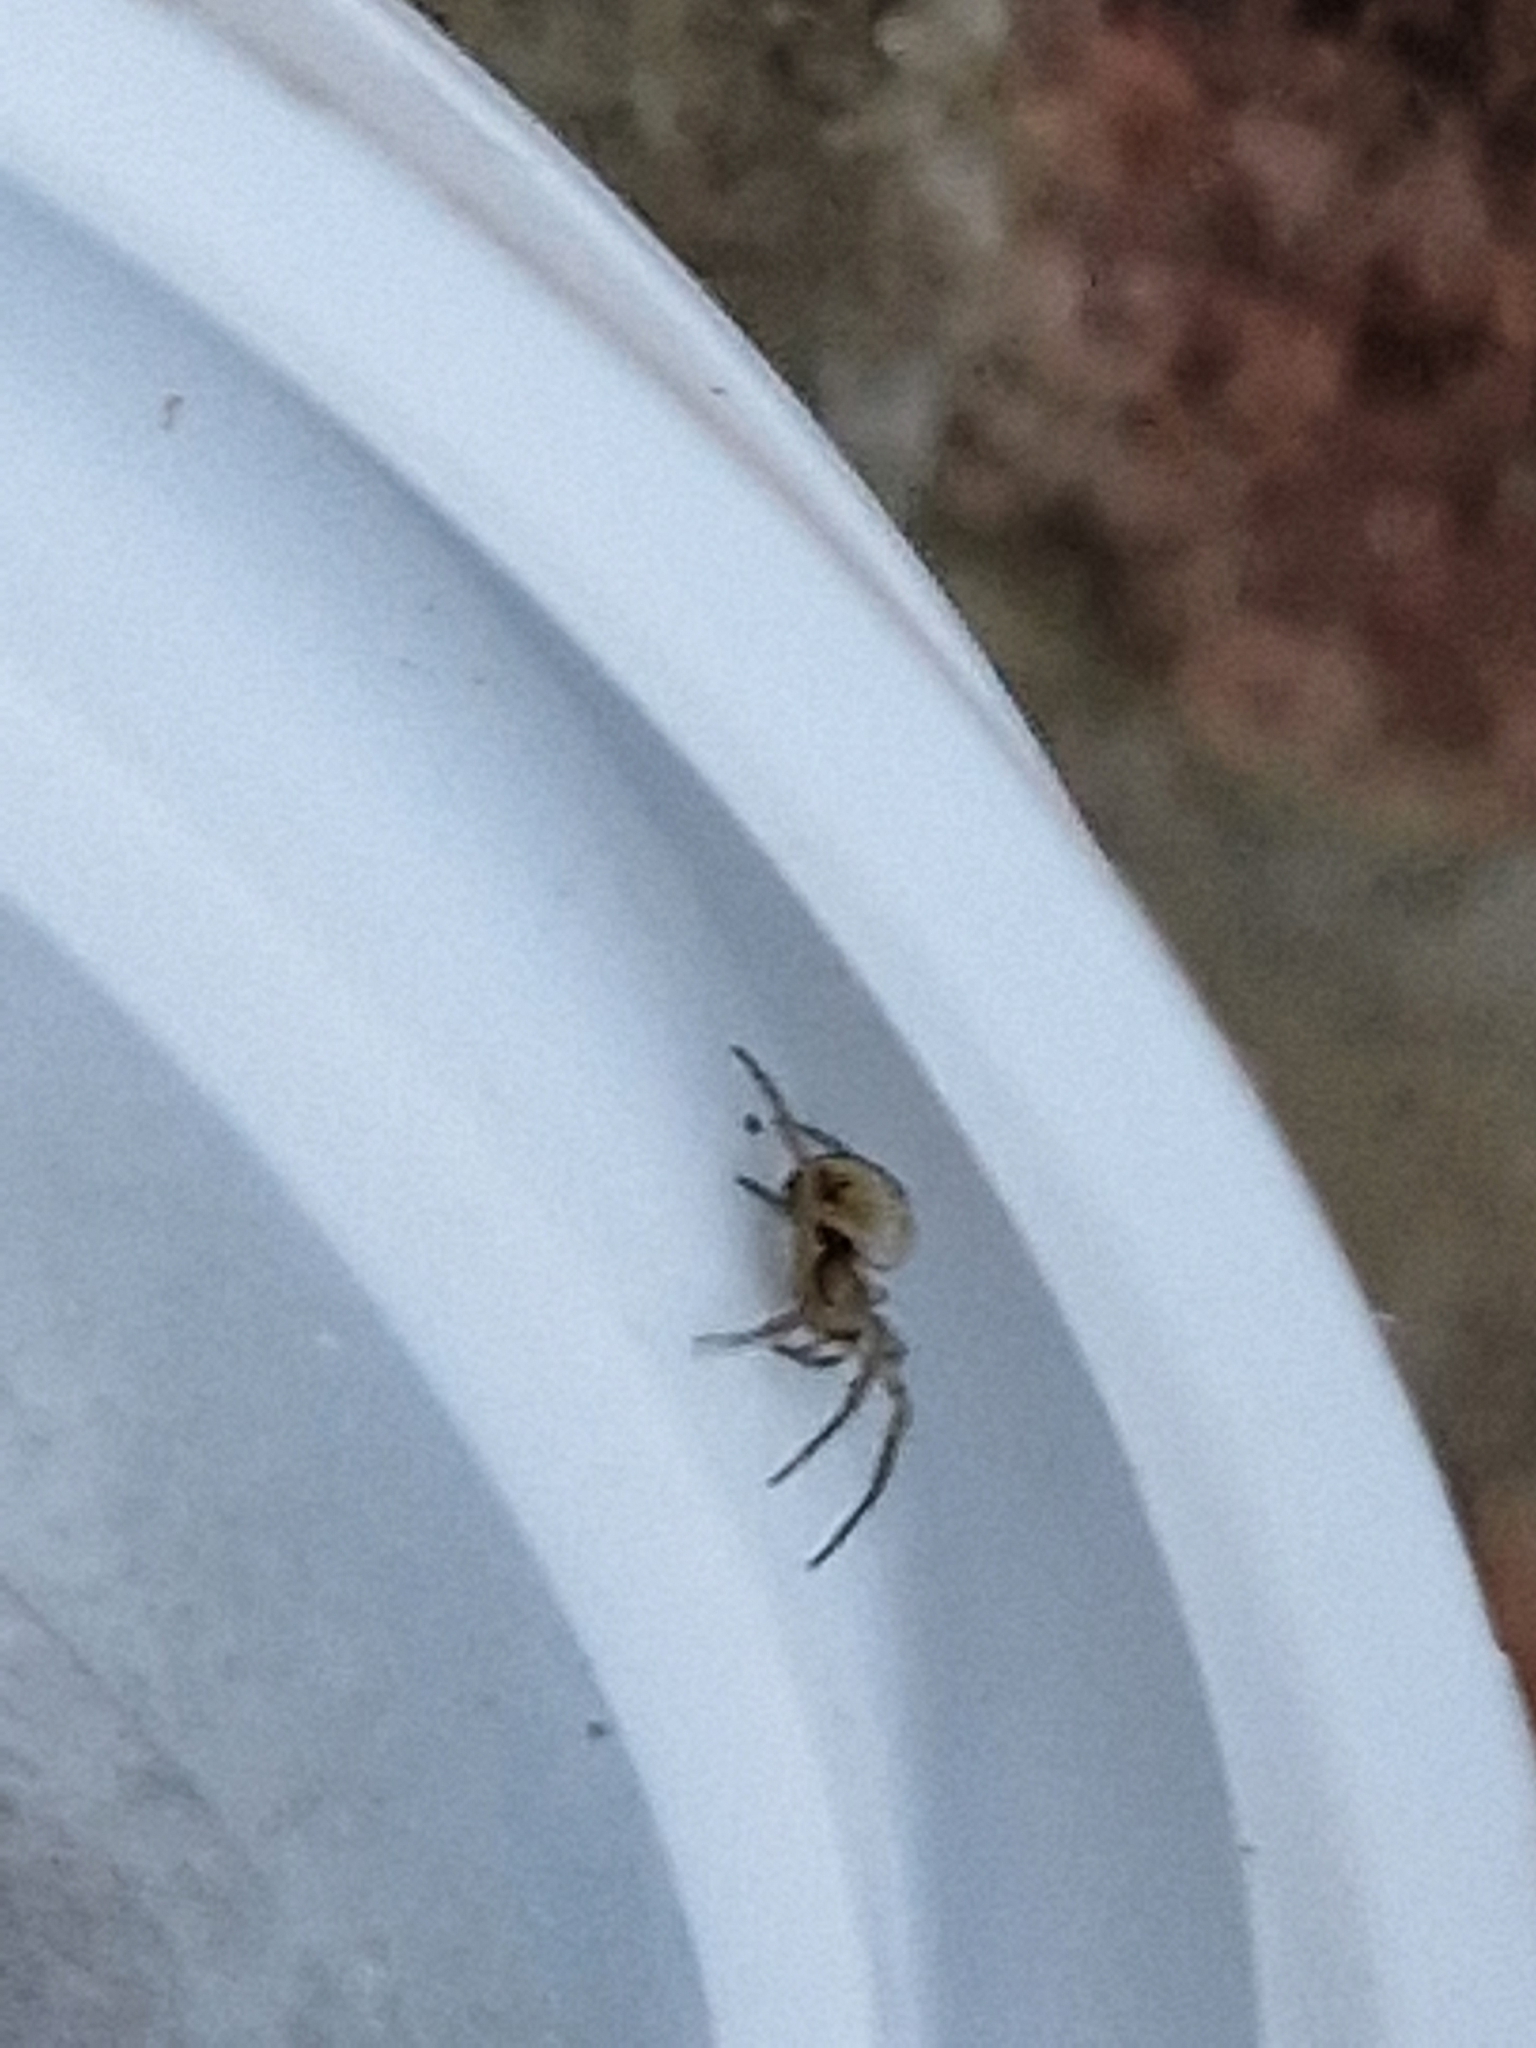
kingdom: Animalia
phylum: Arthropoda
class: Arachnida
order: Araneae
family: Araneidae
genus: Mangora
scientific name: Mangora acalypha
